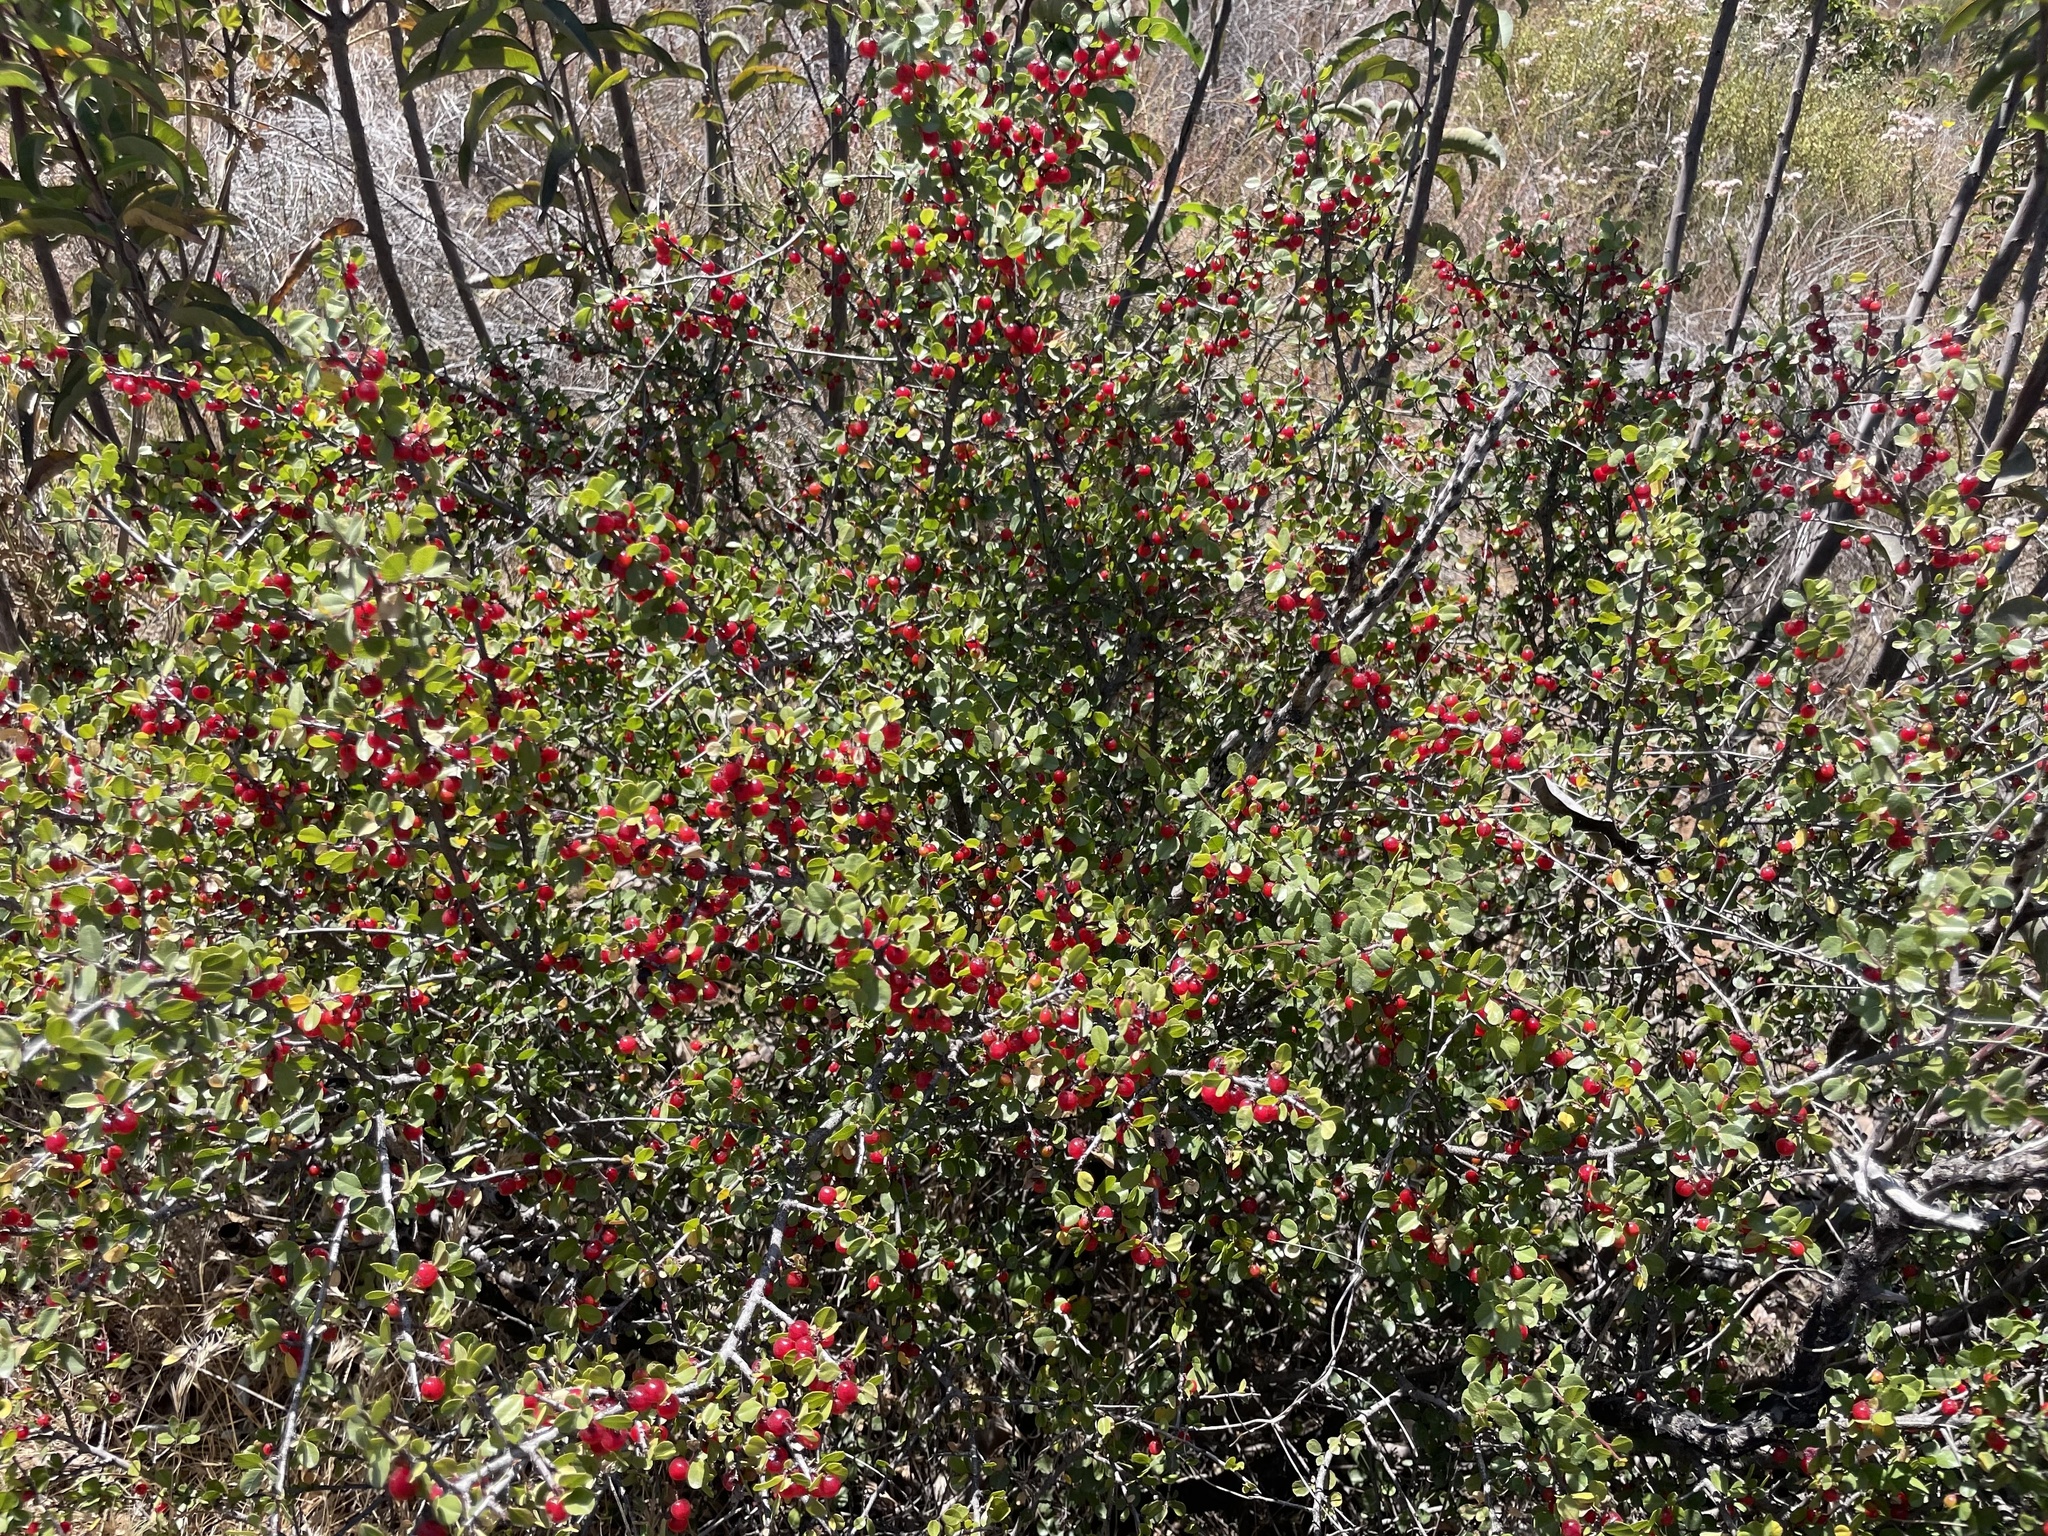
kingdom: Plantae
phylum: Tracheophyta
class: Magnoliopsida
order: Rosales
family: Rhamnaceae
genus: Endotropis
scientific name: Endotropis crocea
